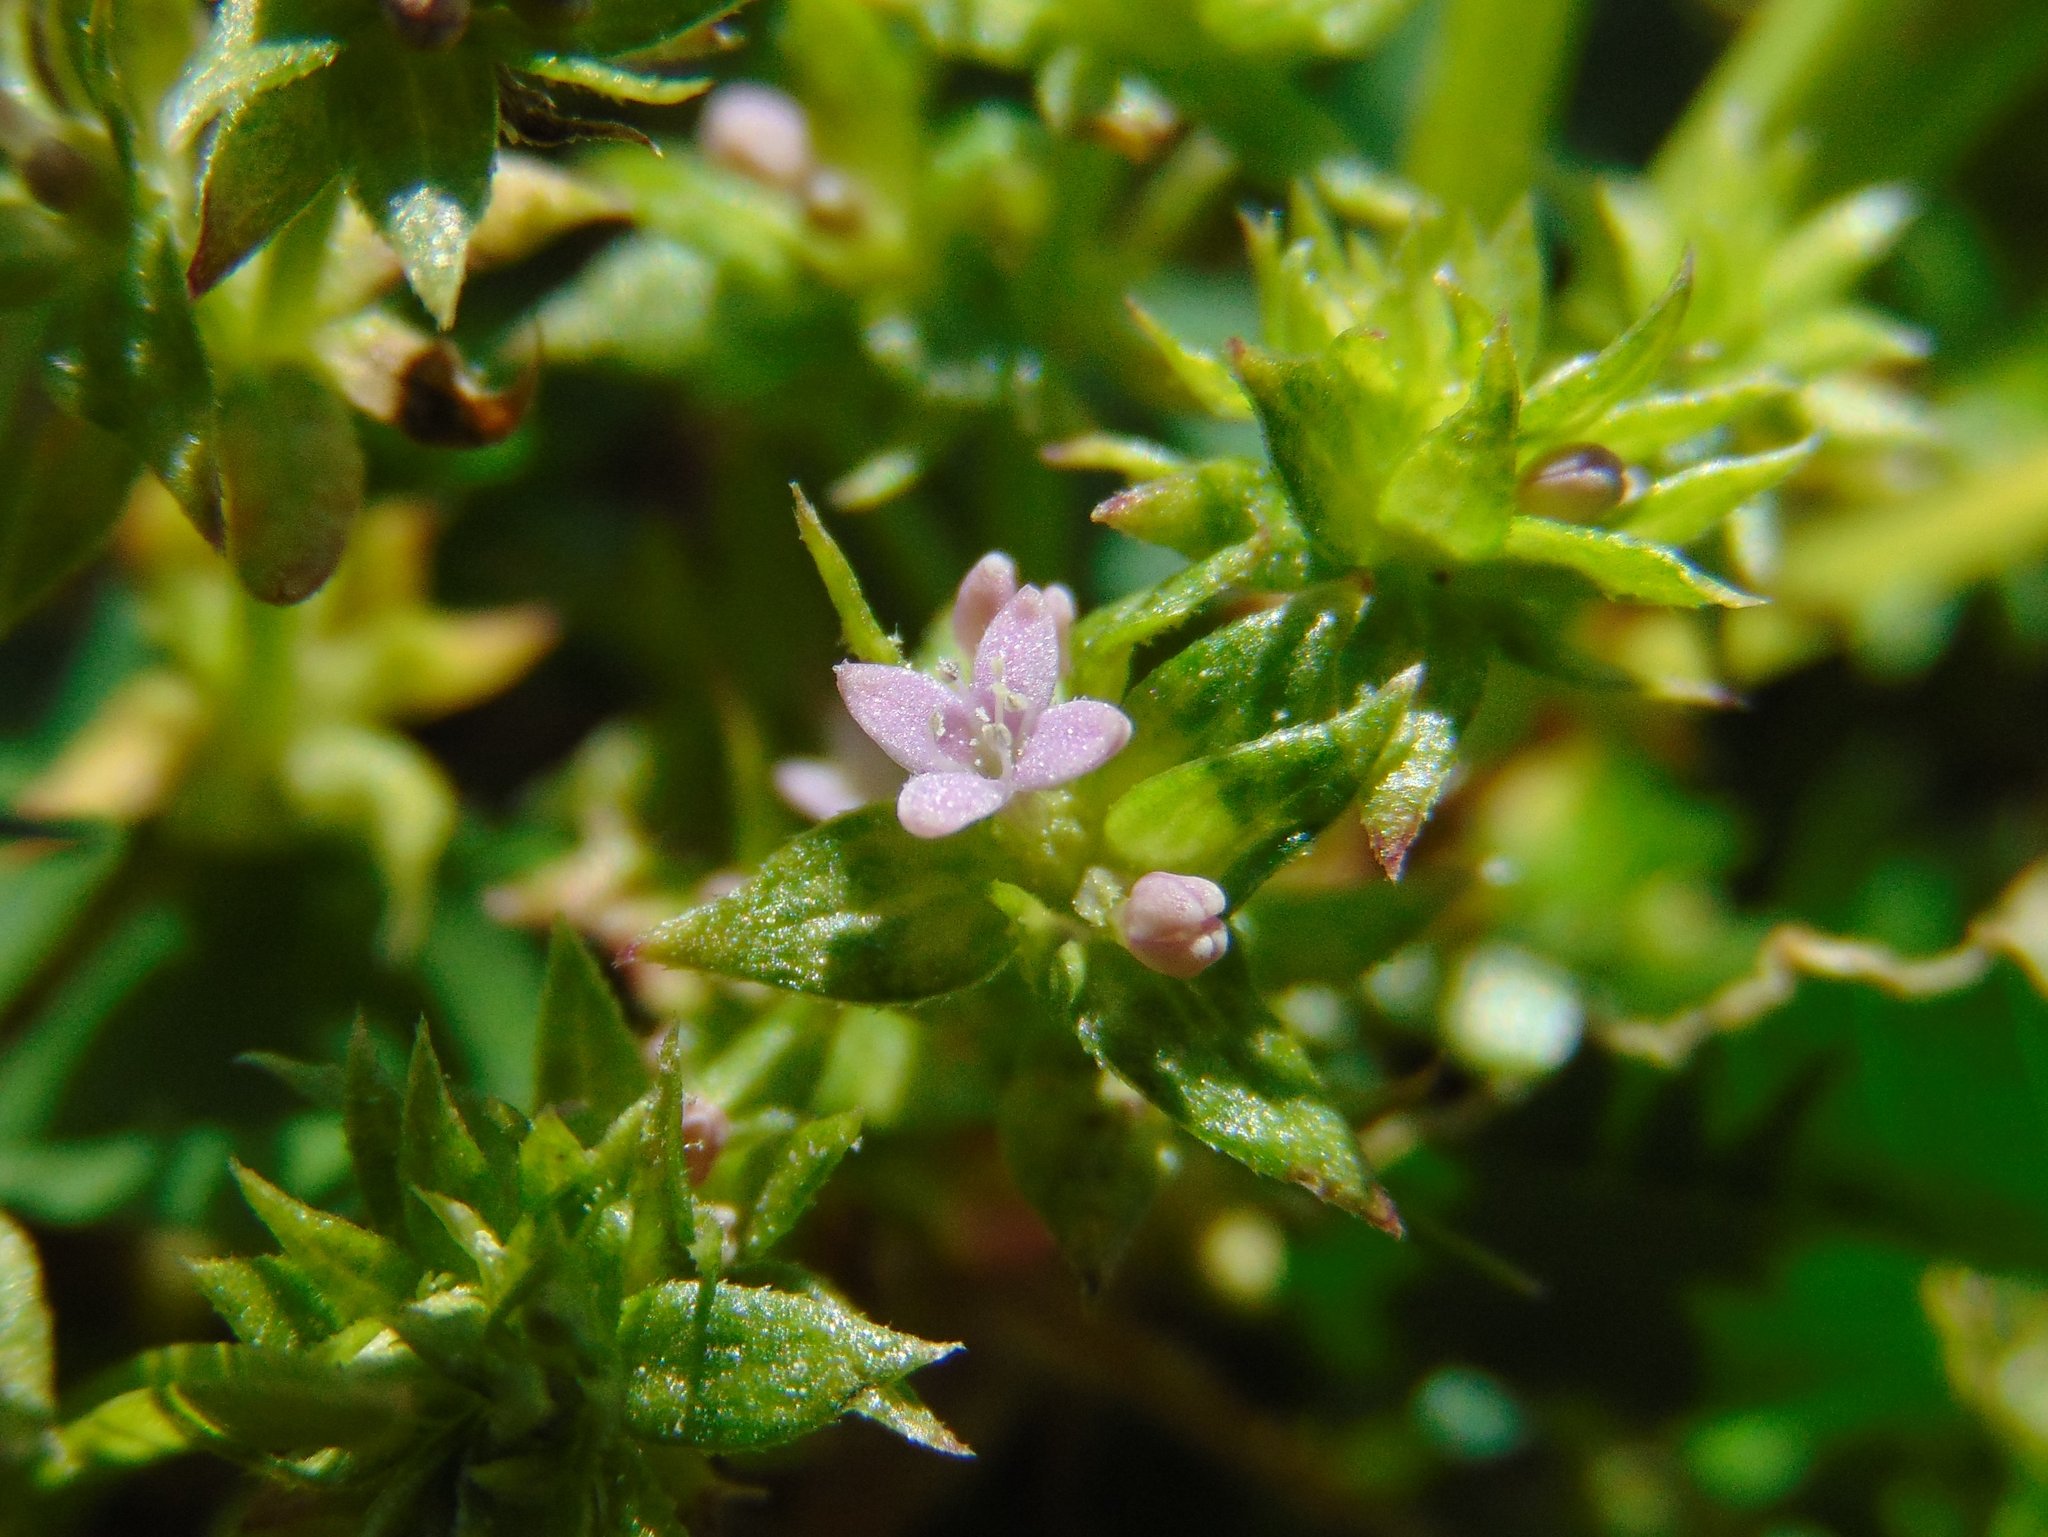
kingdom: Plantae
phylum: Tracheophyta
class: Magnoliopsida
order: Gentianales
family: Rubiaceae
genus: Sherardia
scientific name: Sherardia arvensis
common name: Field madder
